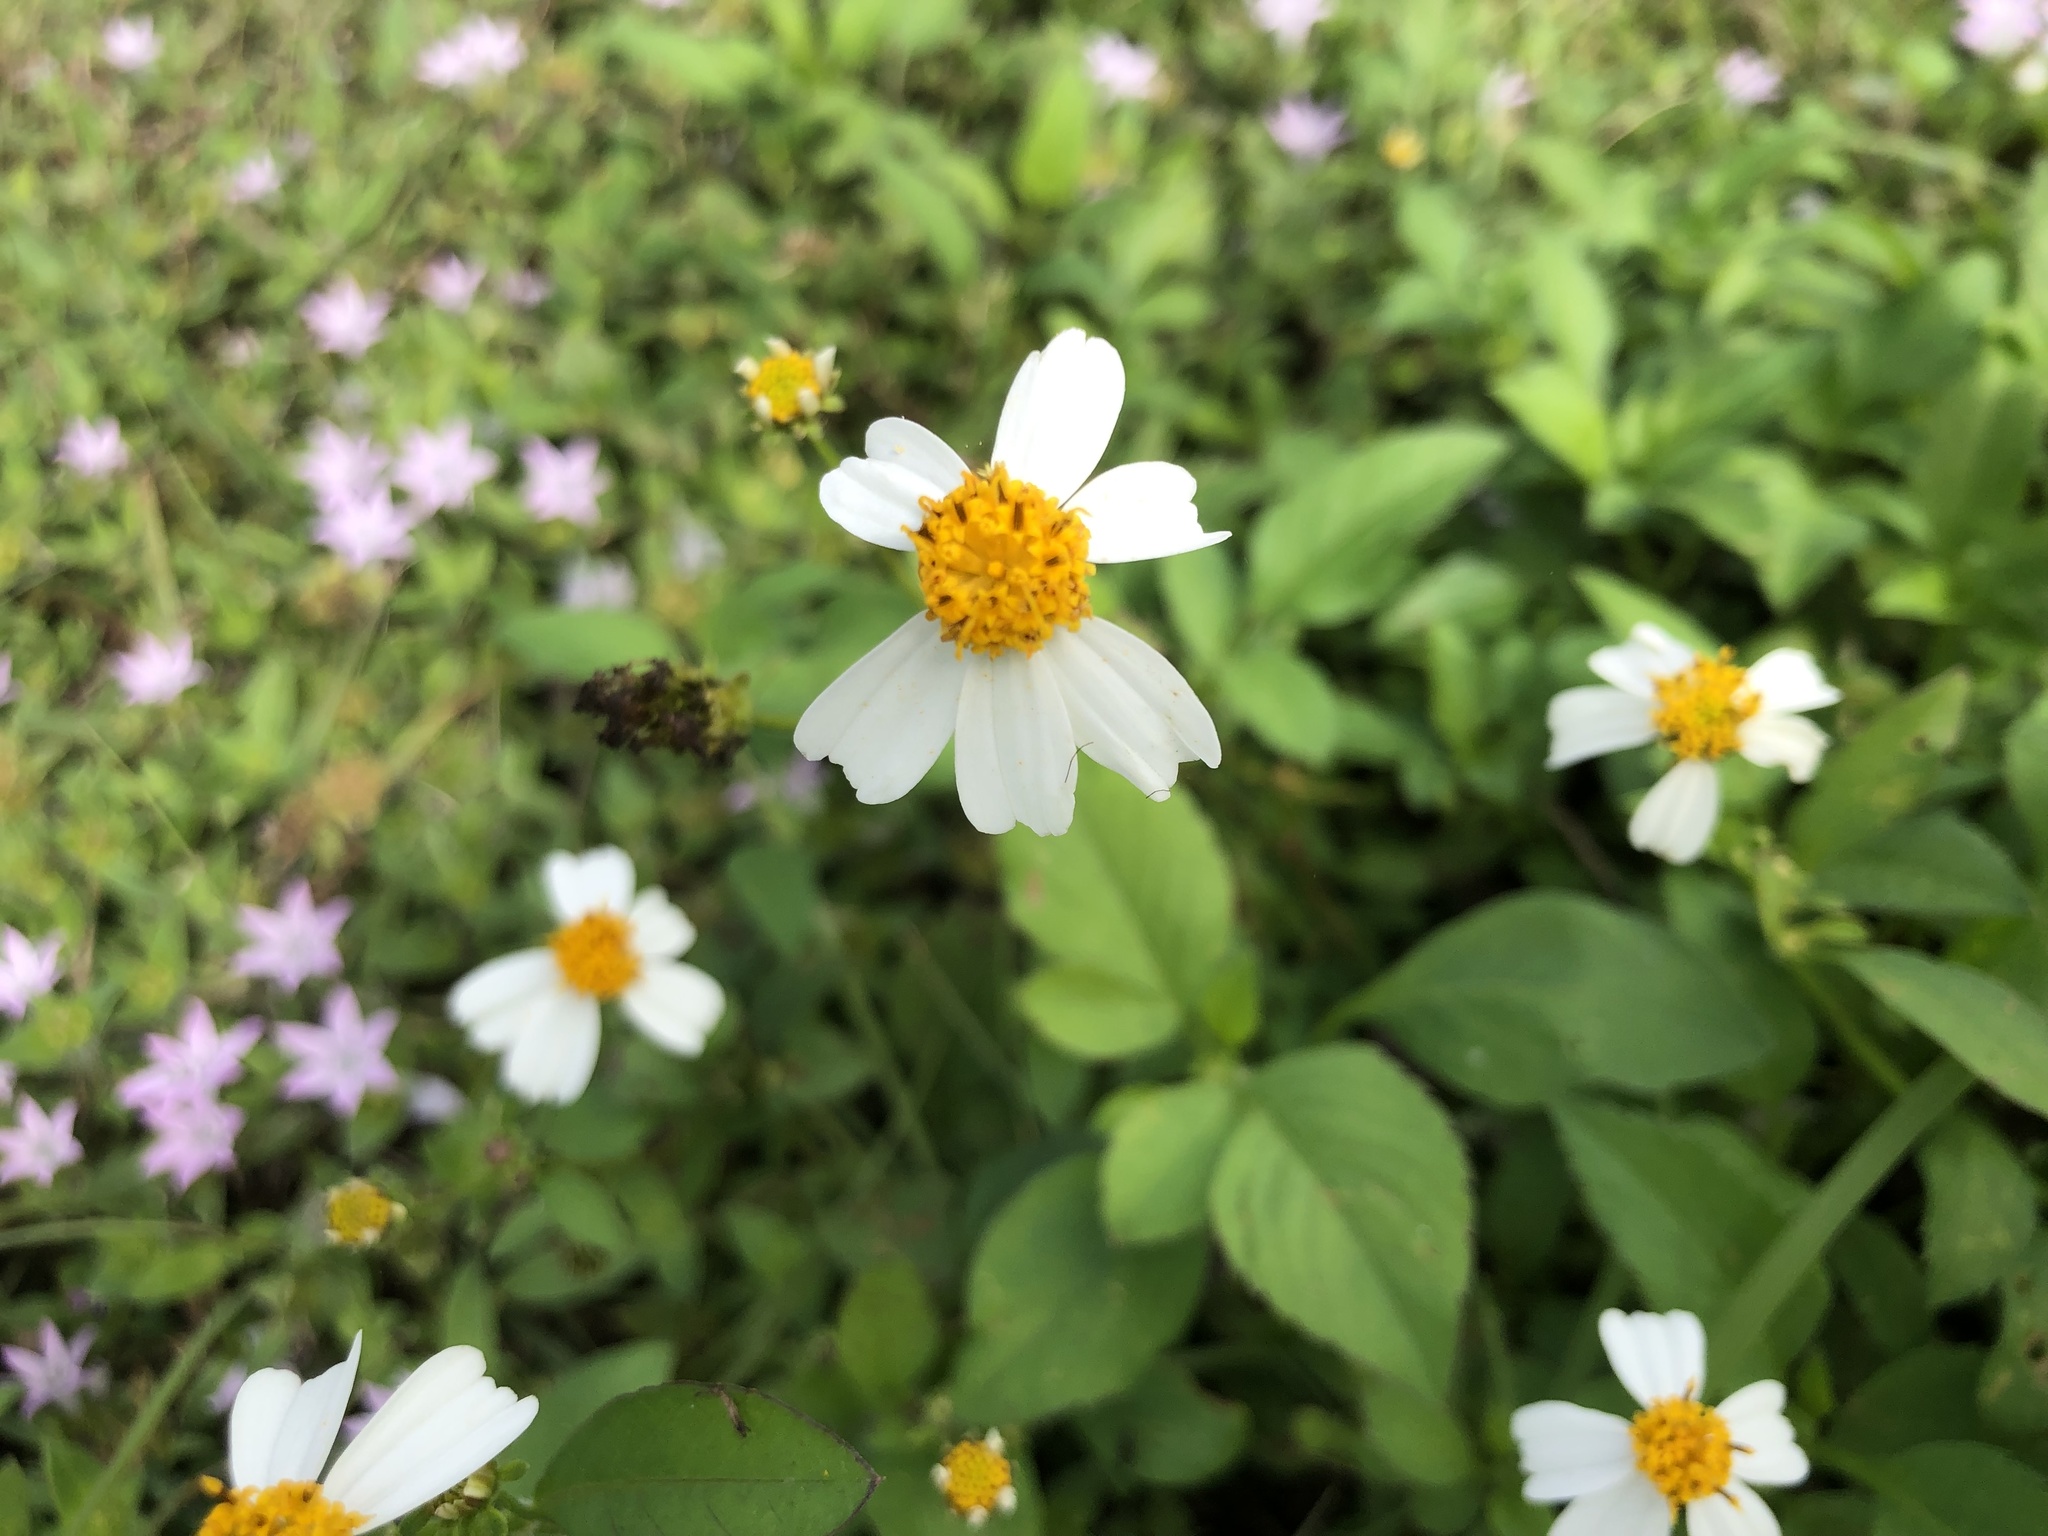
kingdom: Plantae
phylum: Tracheophyta
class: Magnoliopsida
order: Asterales
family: Asteraceae
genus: Bidens
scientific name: Bidens alba
